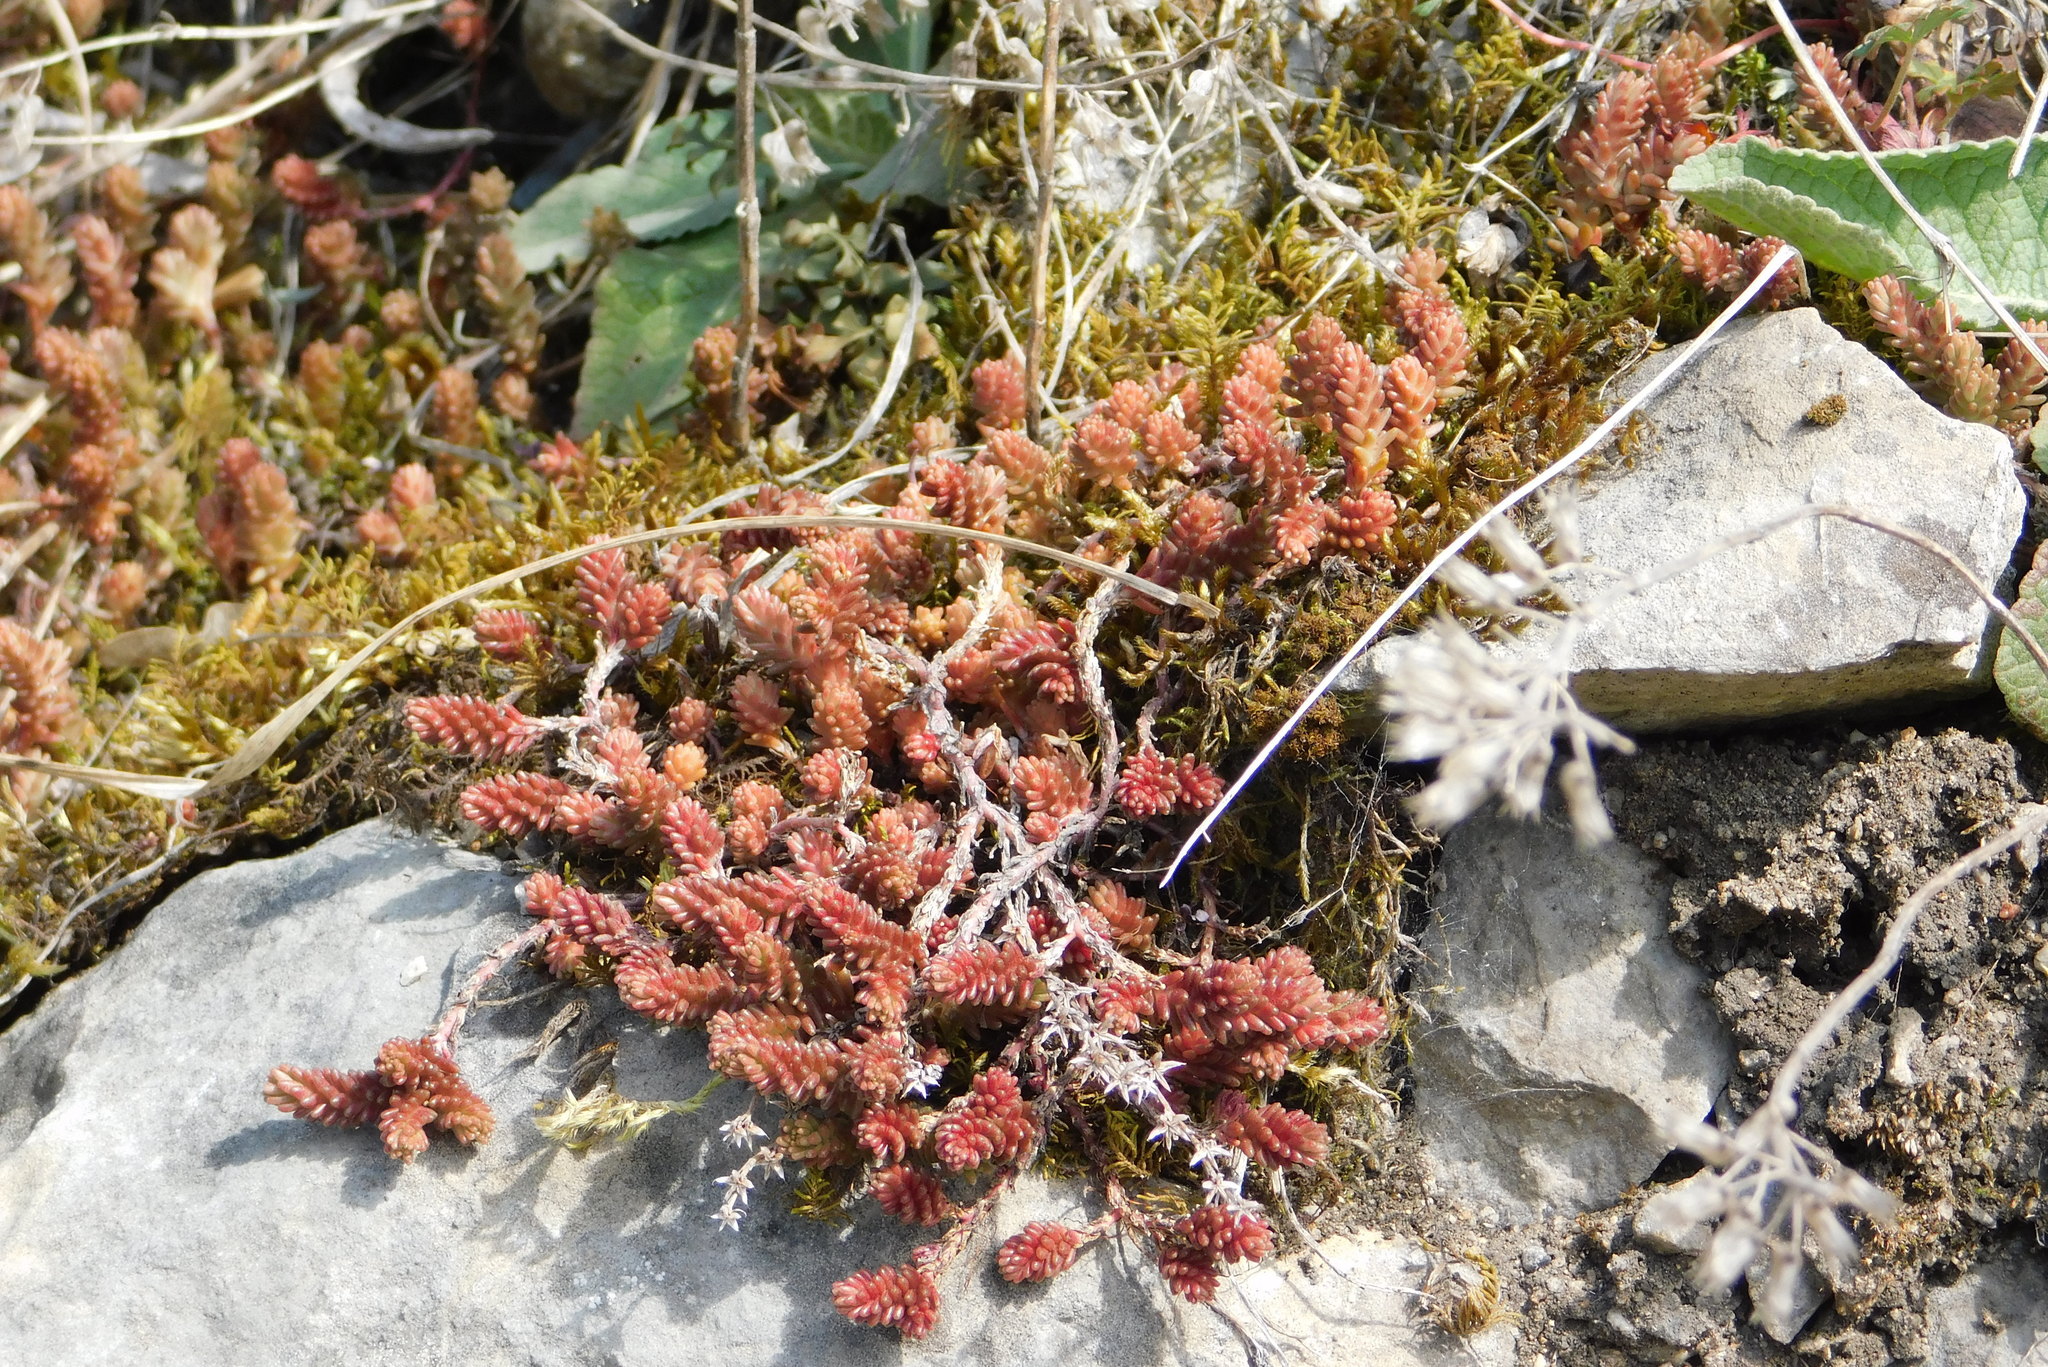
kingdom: Plantae
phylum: Tracheophyta
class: Magnoliopsida
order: Saxifragales
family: Crassulaceae
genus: Sedum
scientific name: Sedum sexangulare
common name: Tasteless stonecrop
